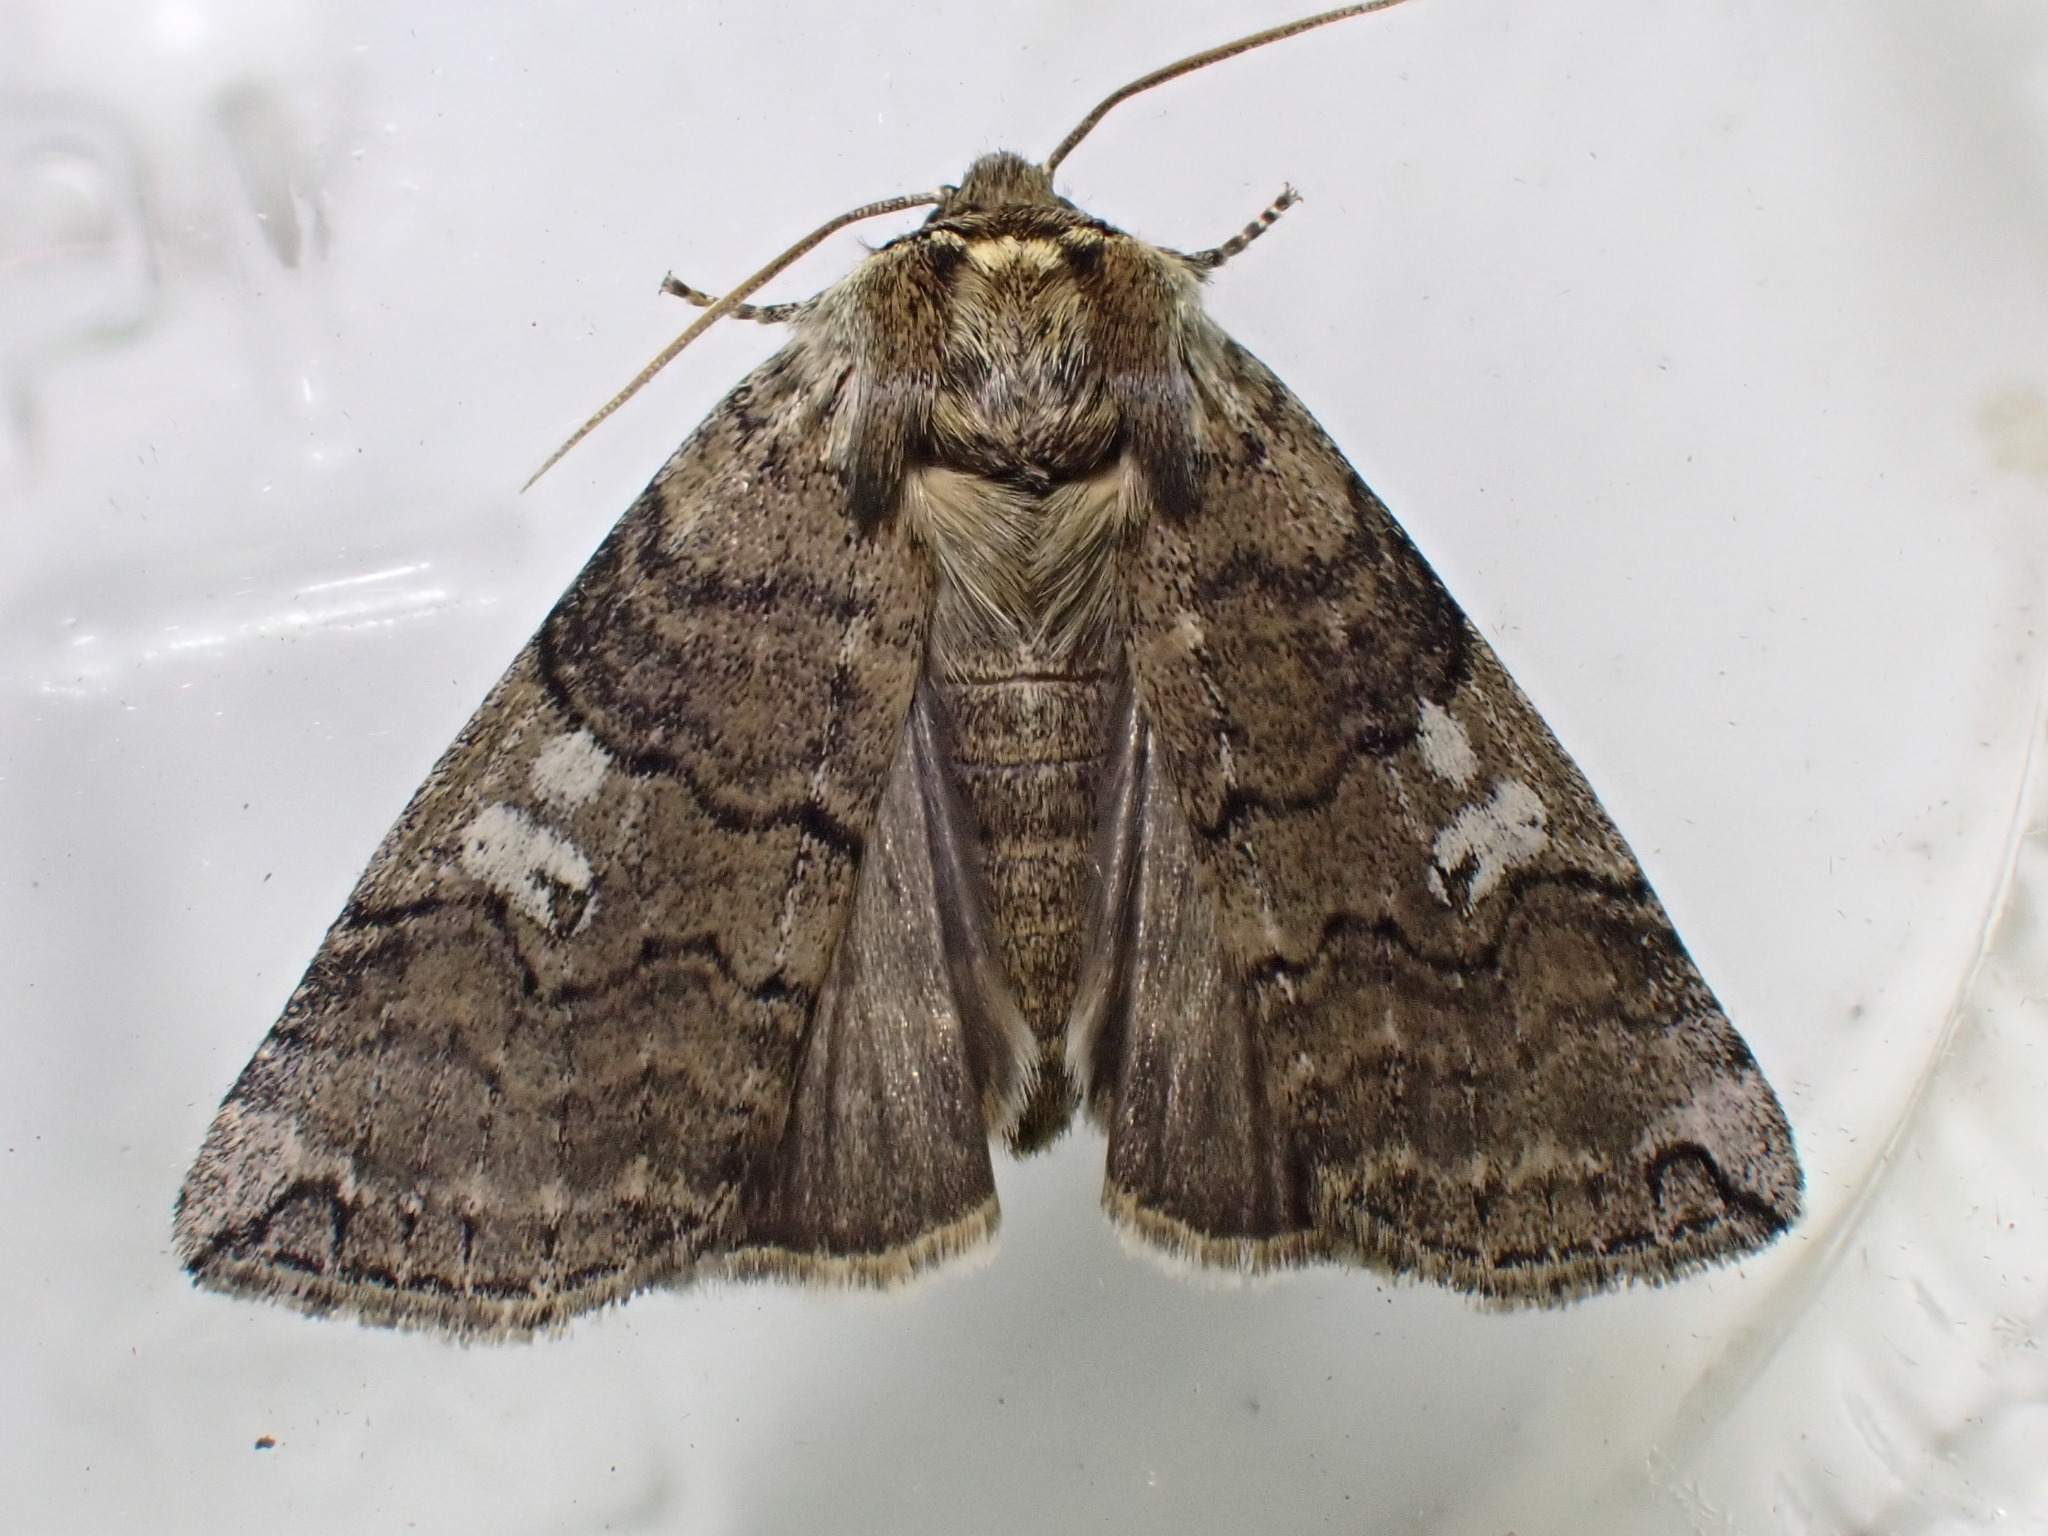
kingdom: Animalia
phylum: Arthropoda
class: Insecta
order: Lepidoptera
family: Drepanidae
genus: Tethea
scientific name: Tethea or
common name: Poplar lutestring
